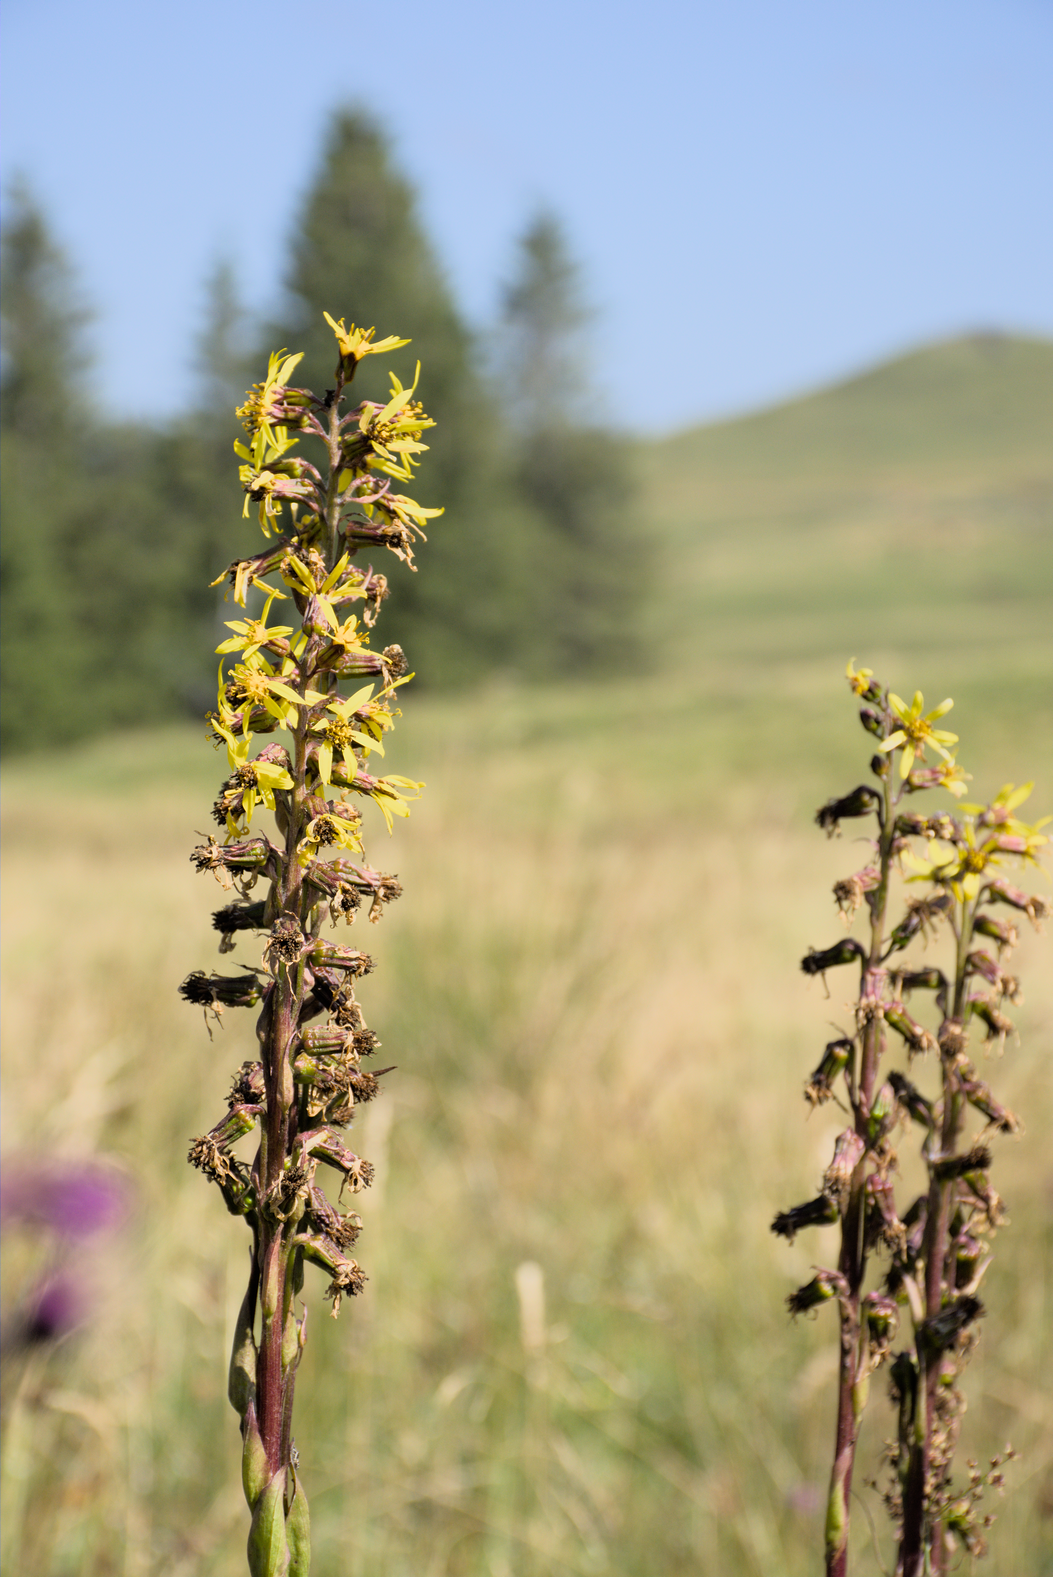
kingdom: Plantae
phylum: Tracheophyta
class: Magnoliopsida
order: Asterales
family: Asteraceae
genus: Ligularia
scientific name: Ligularia sibirica
